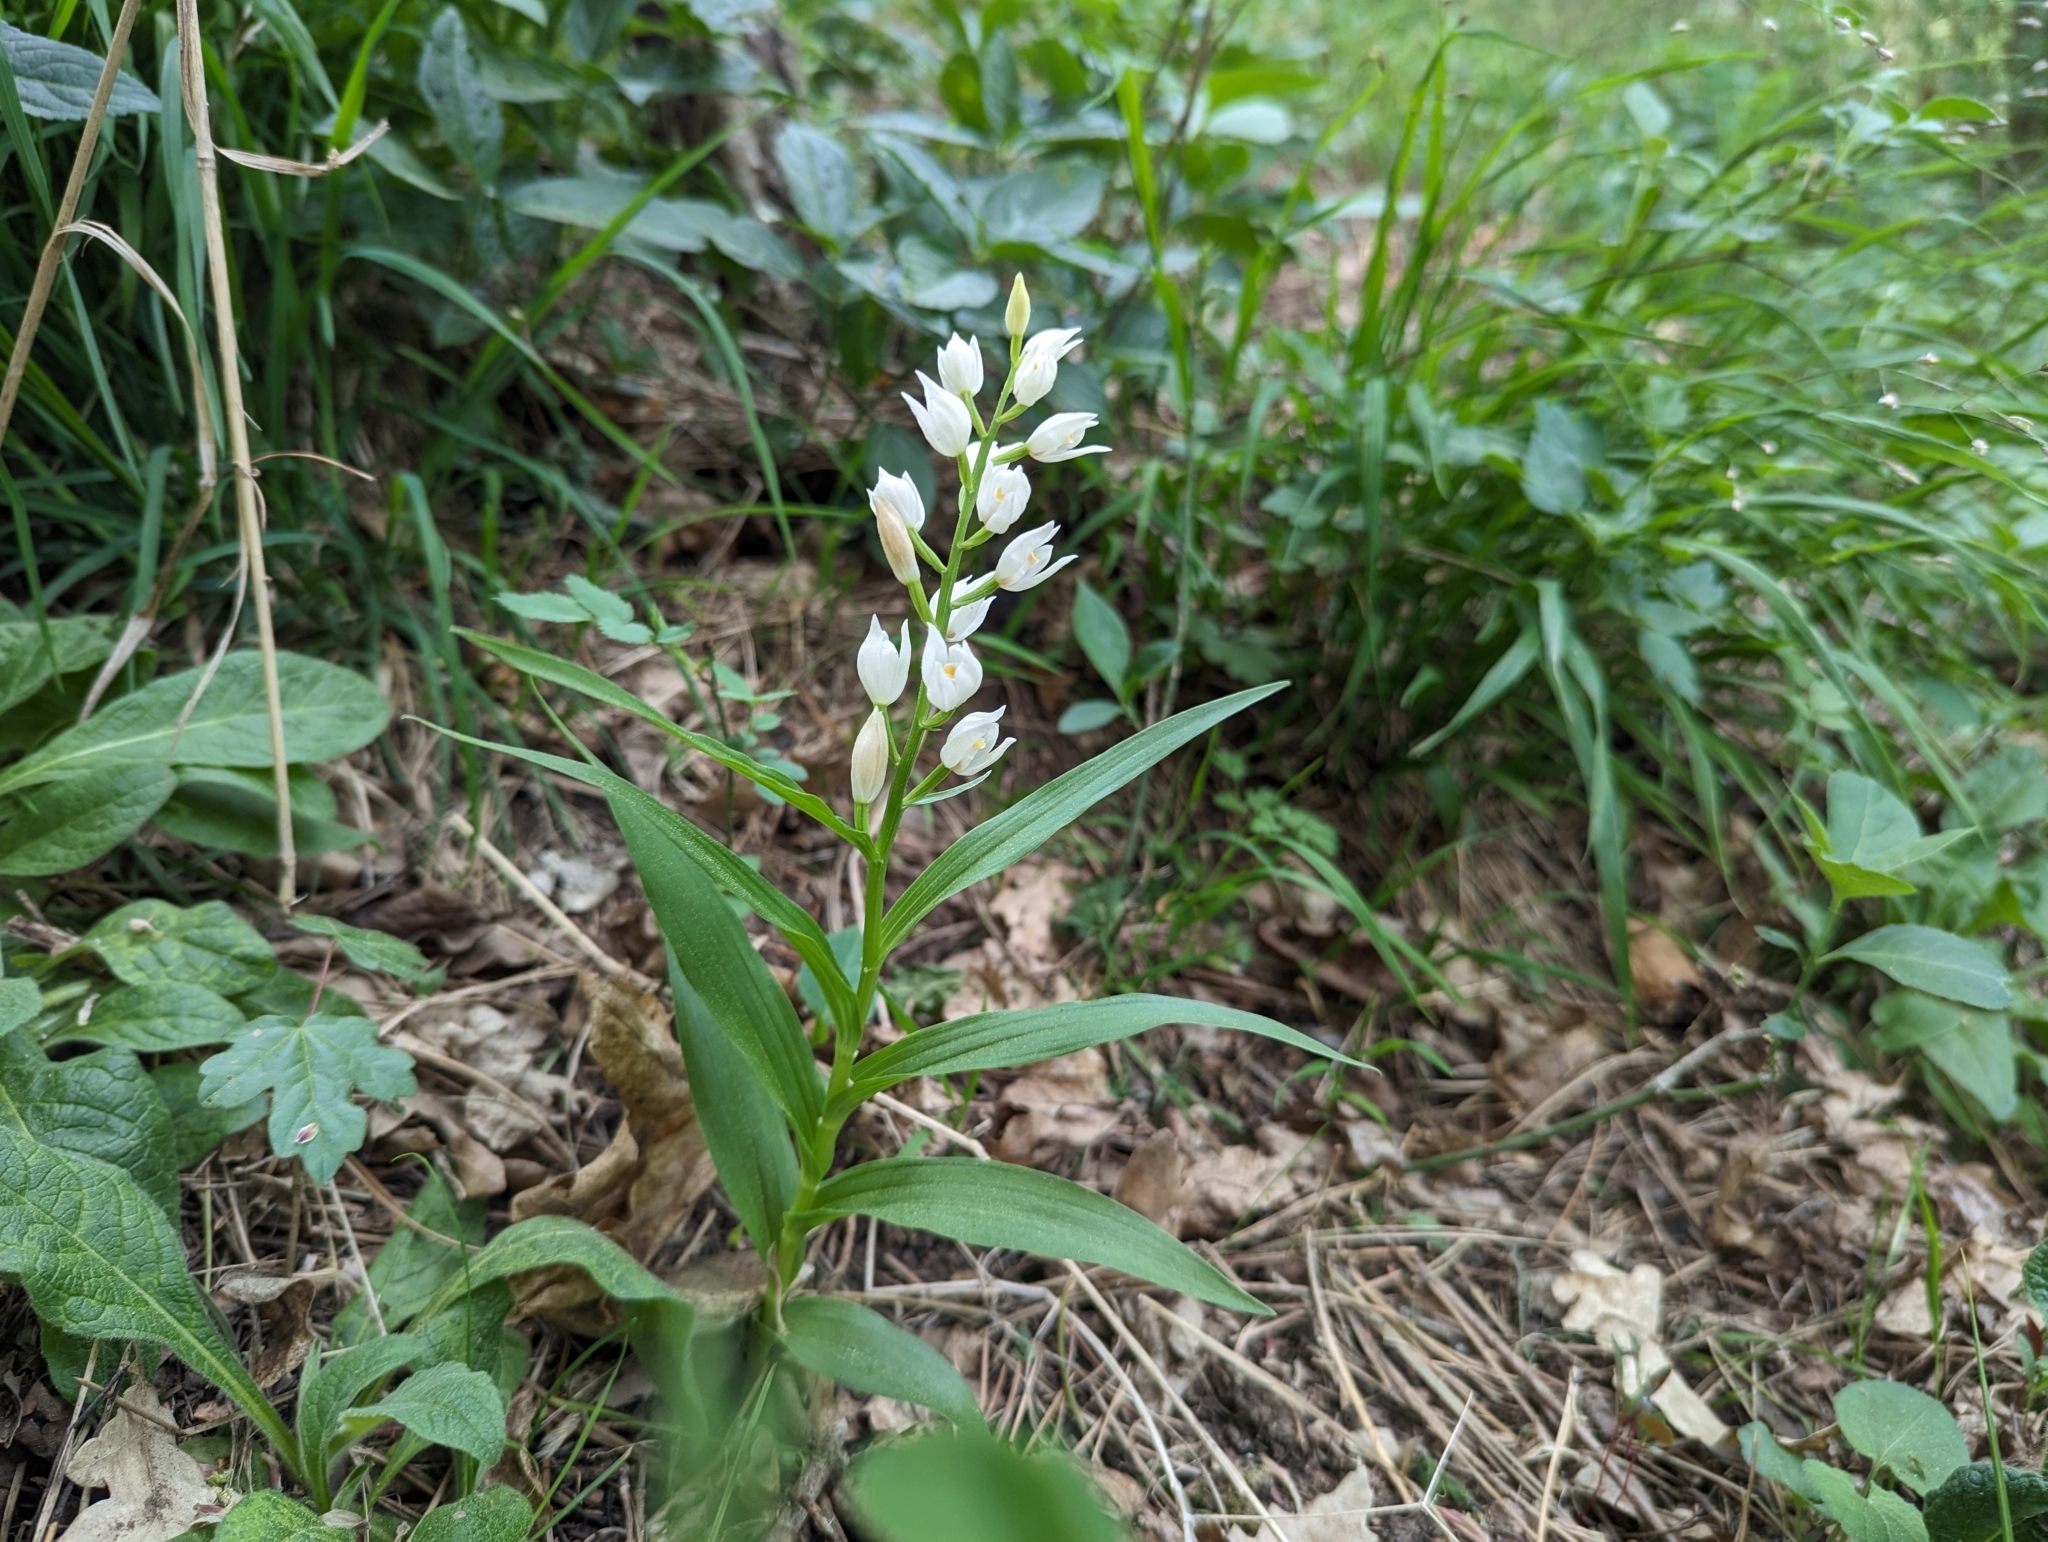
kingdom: Plantae
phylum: Tracheophyta
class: Liliopsida
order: Asparagales
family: Orchidaceae
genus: Cephalanthera
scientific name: Cephalanthera longifolia
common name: Narrow-leaved helleborine
